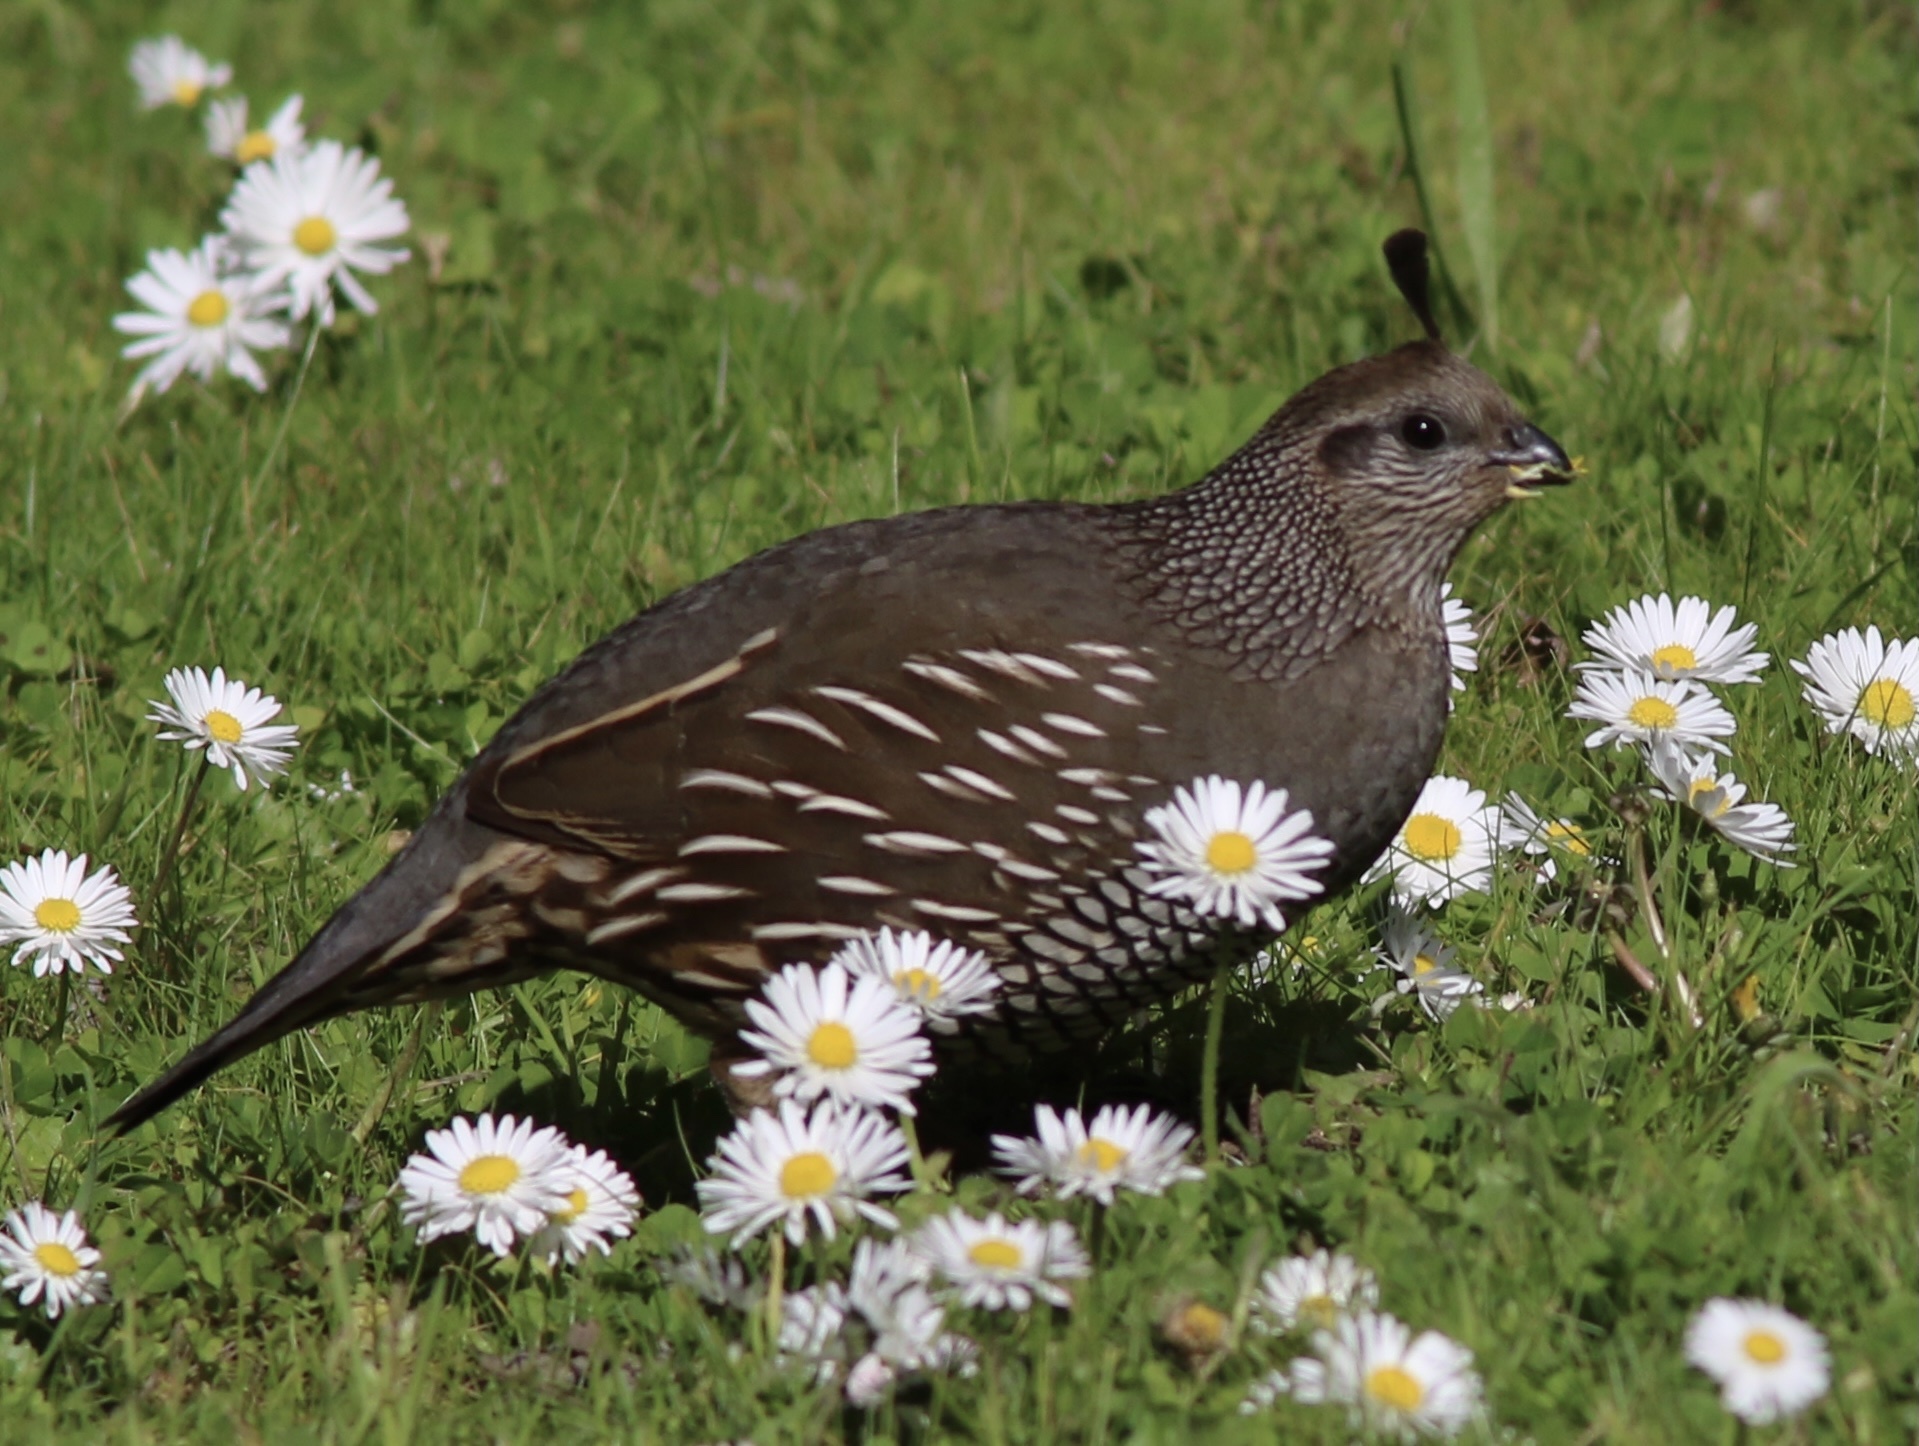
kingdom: Animalia
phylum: Chordata
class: Aves
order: Galliformes
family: Odontophoridae
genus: Callipepla
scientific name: Callipepla californica
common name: California quail
